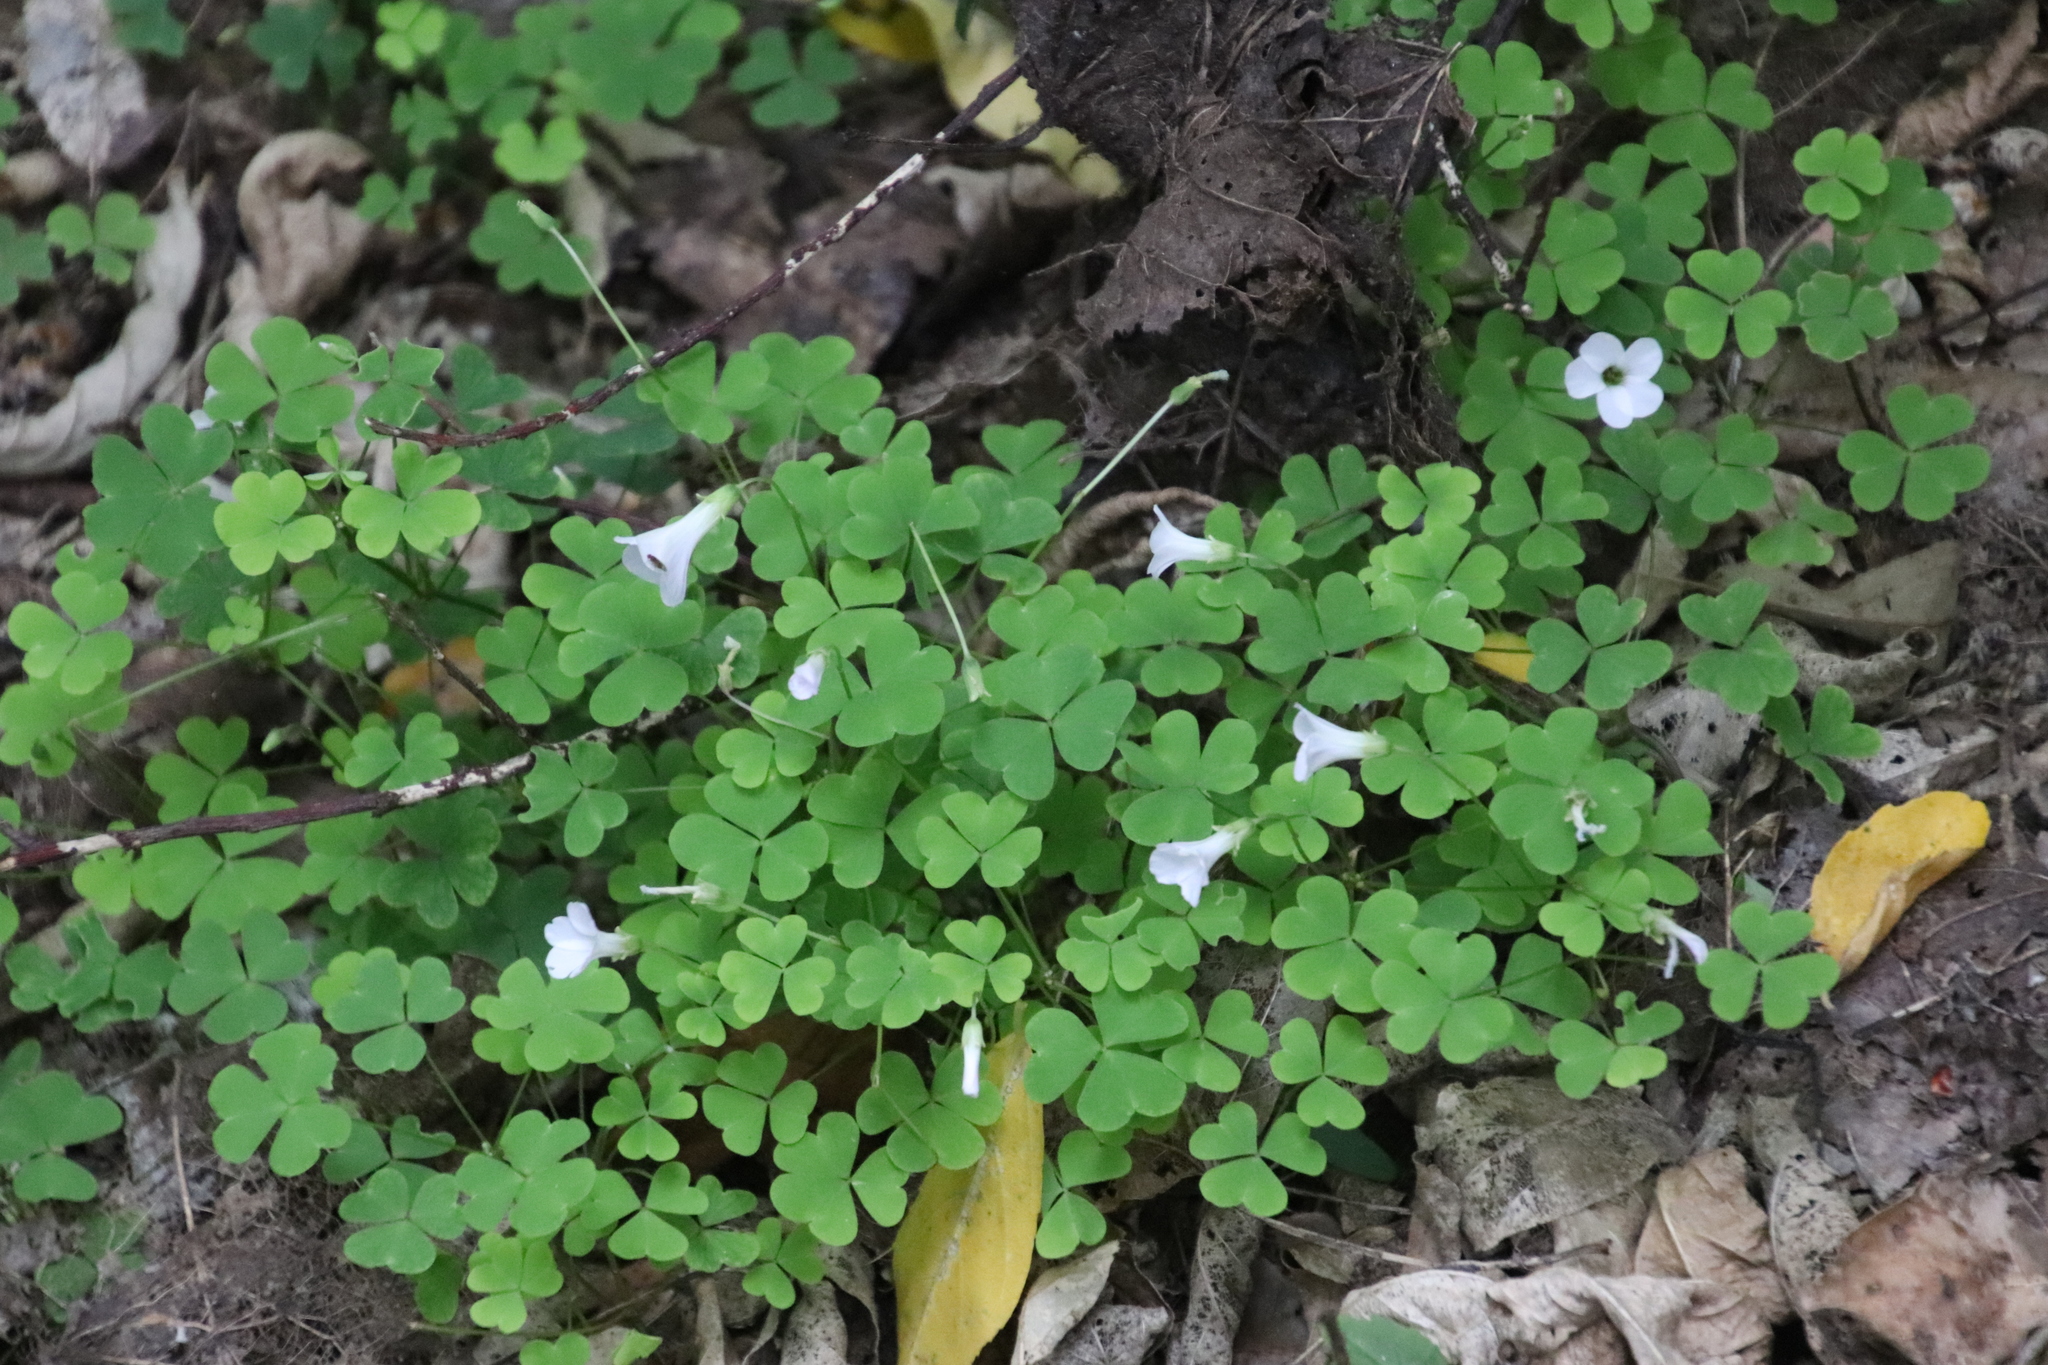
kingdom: Plantae
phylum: Tracheophyta
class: Magnoliopsida
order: Oxalidales
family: Oxalidaceae
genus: Oxalis
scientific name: Oxalis incarnata
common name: Pale pink-sorrel
